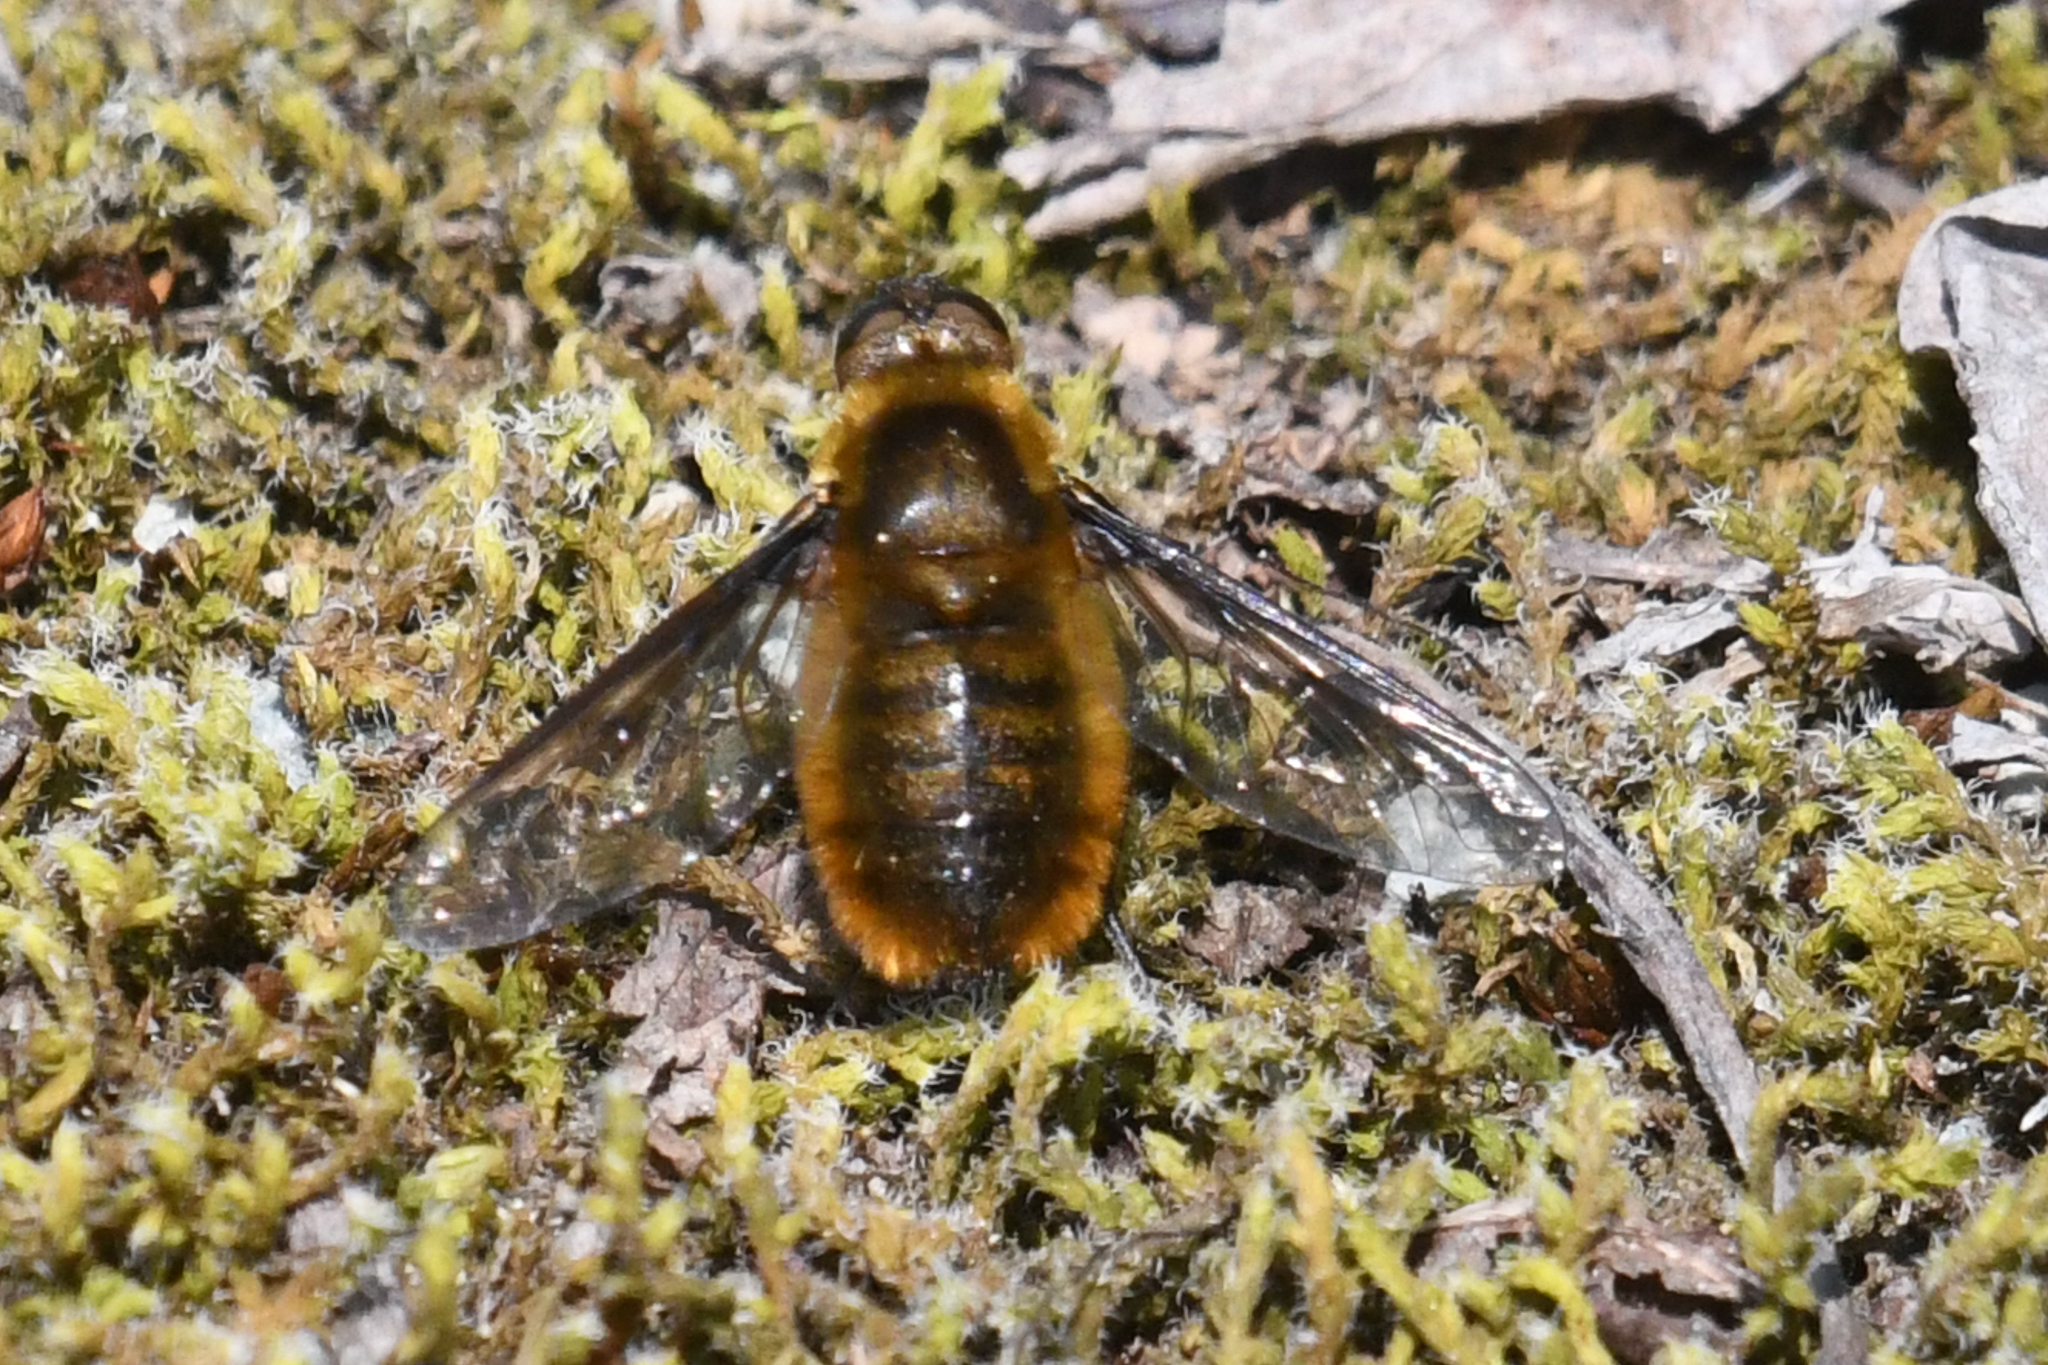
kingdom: Animalia
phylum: Arthropoda
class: Insecta
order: Diptera
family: Bombyliidae
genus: Villa
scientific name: Villa fulviana
